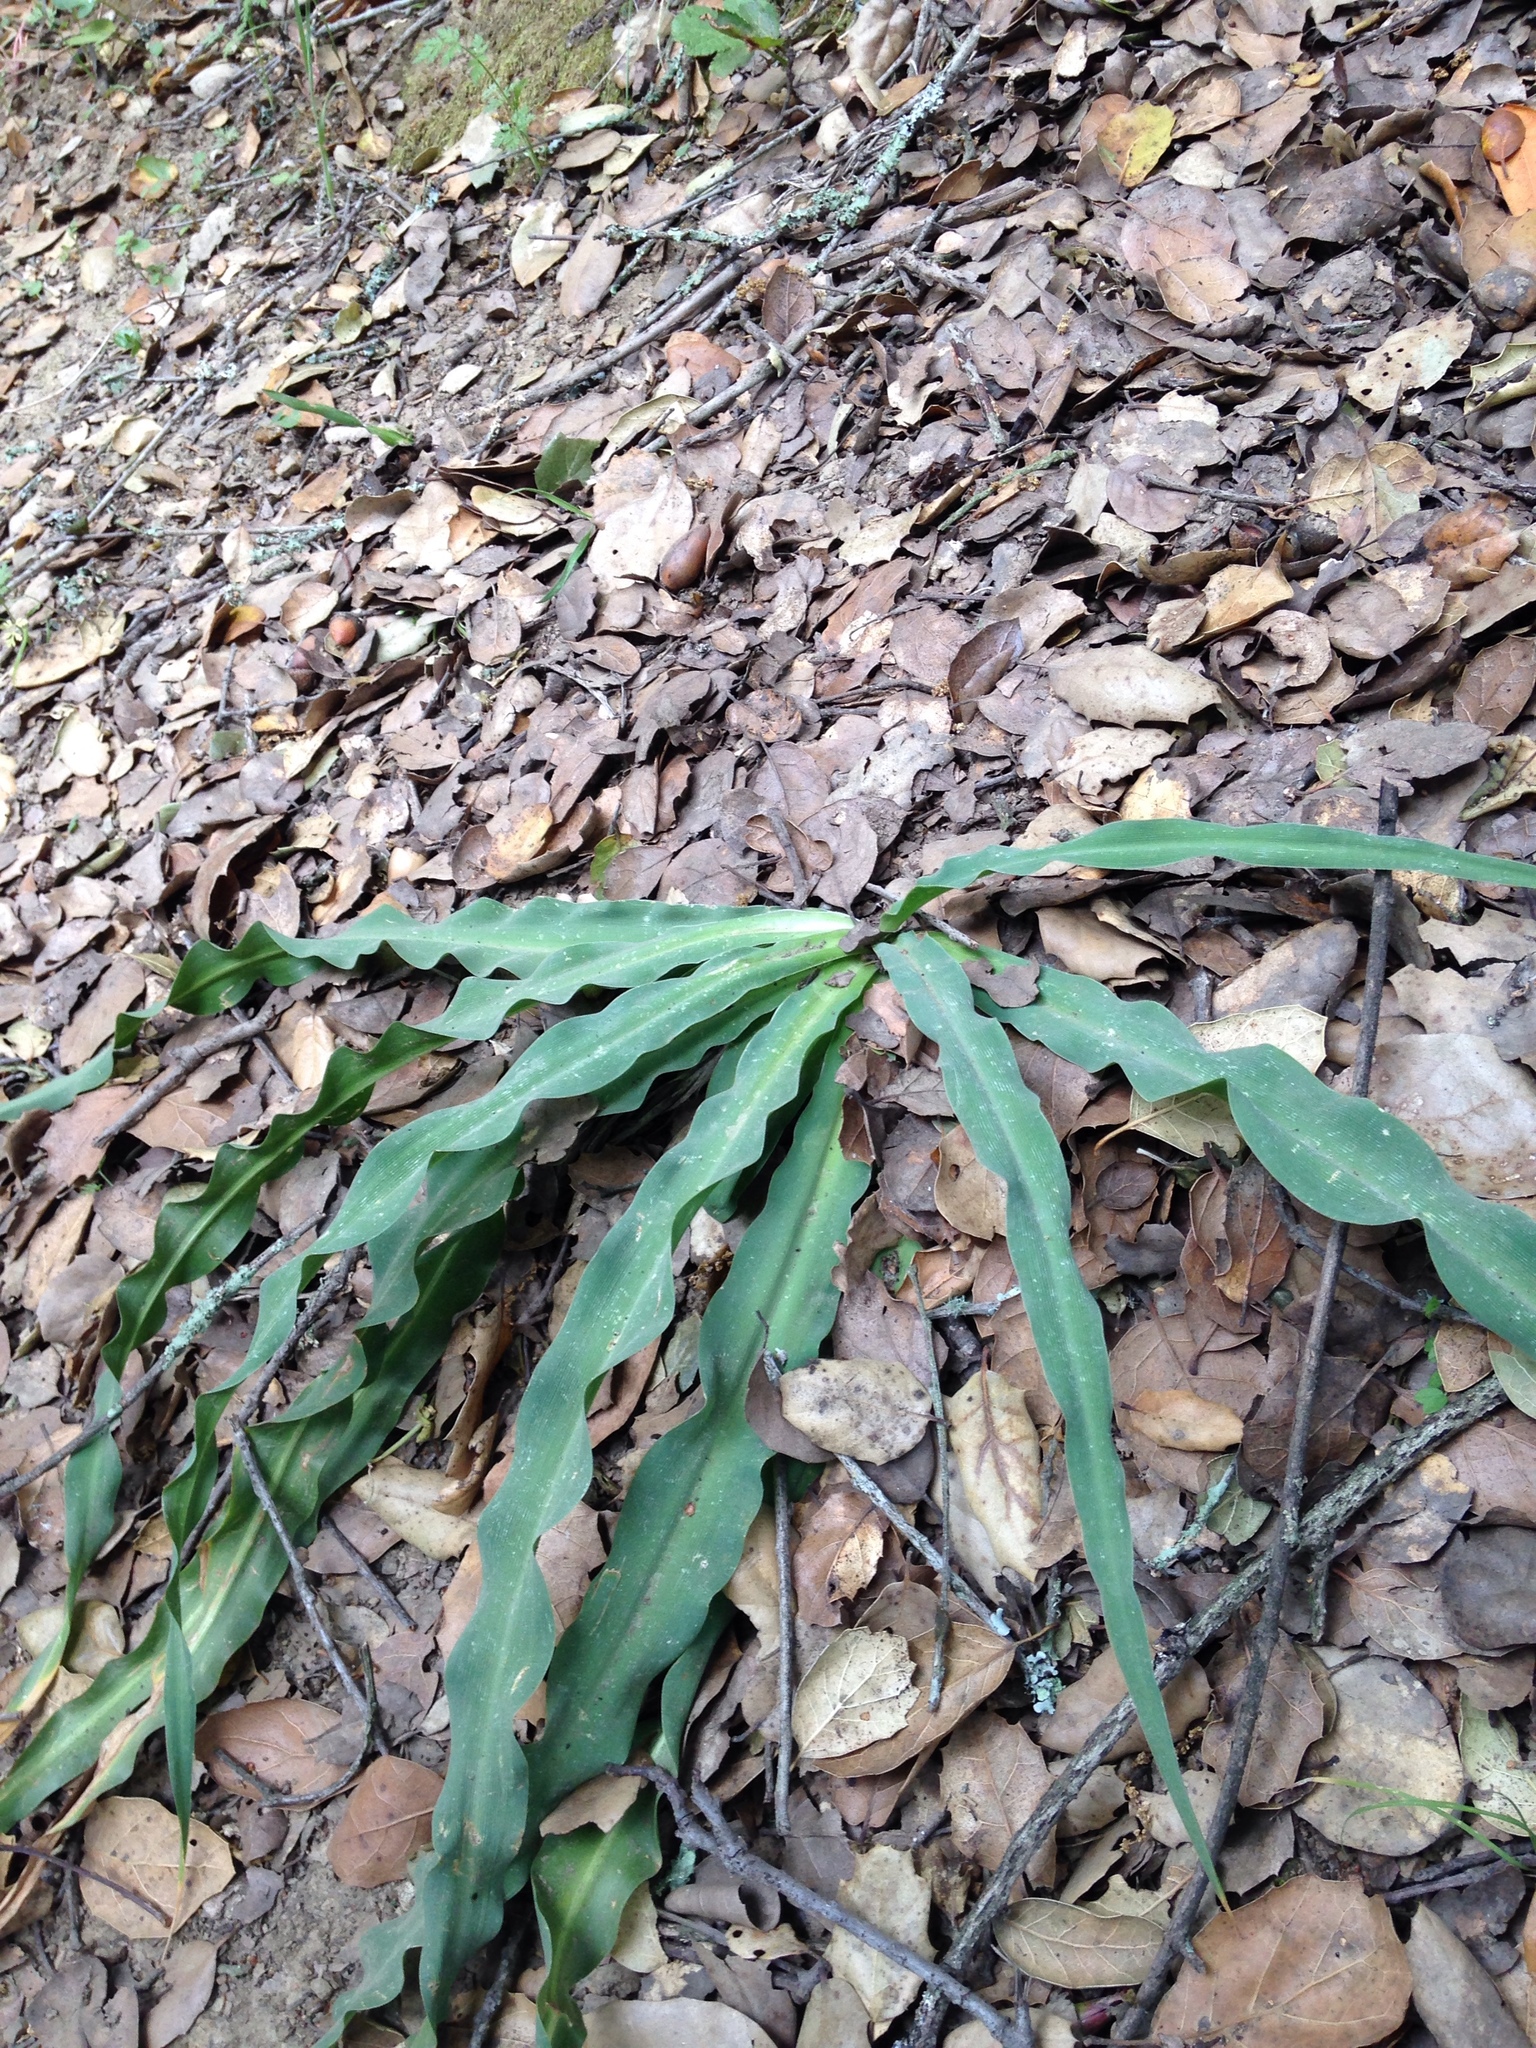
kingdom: Plantae
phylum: Tracheophyta
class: Liliopsida
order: Asparagales
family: Asparagaceae
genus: Chlorogalum
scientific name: Chlorogalum pomeridianum
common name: Amole
